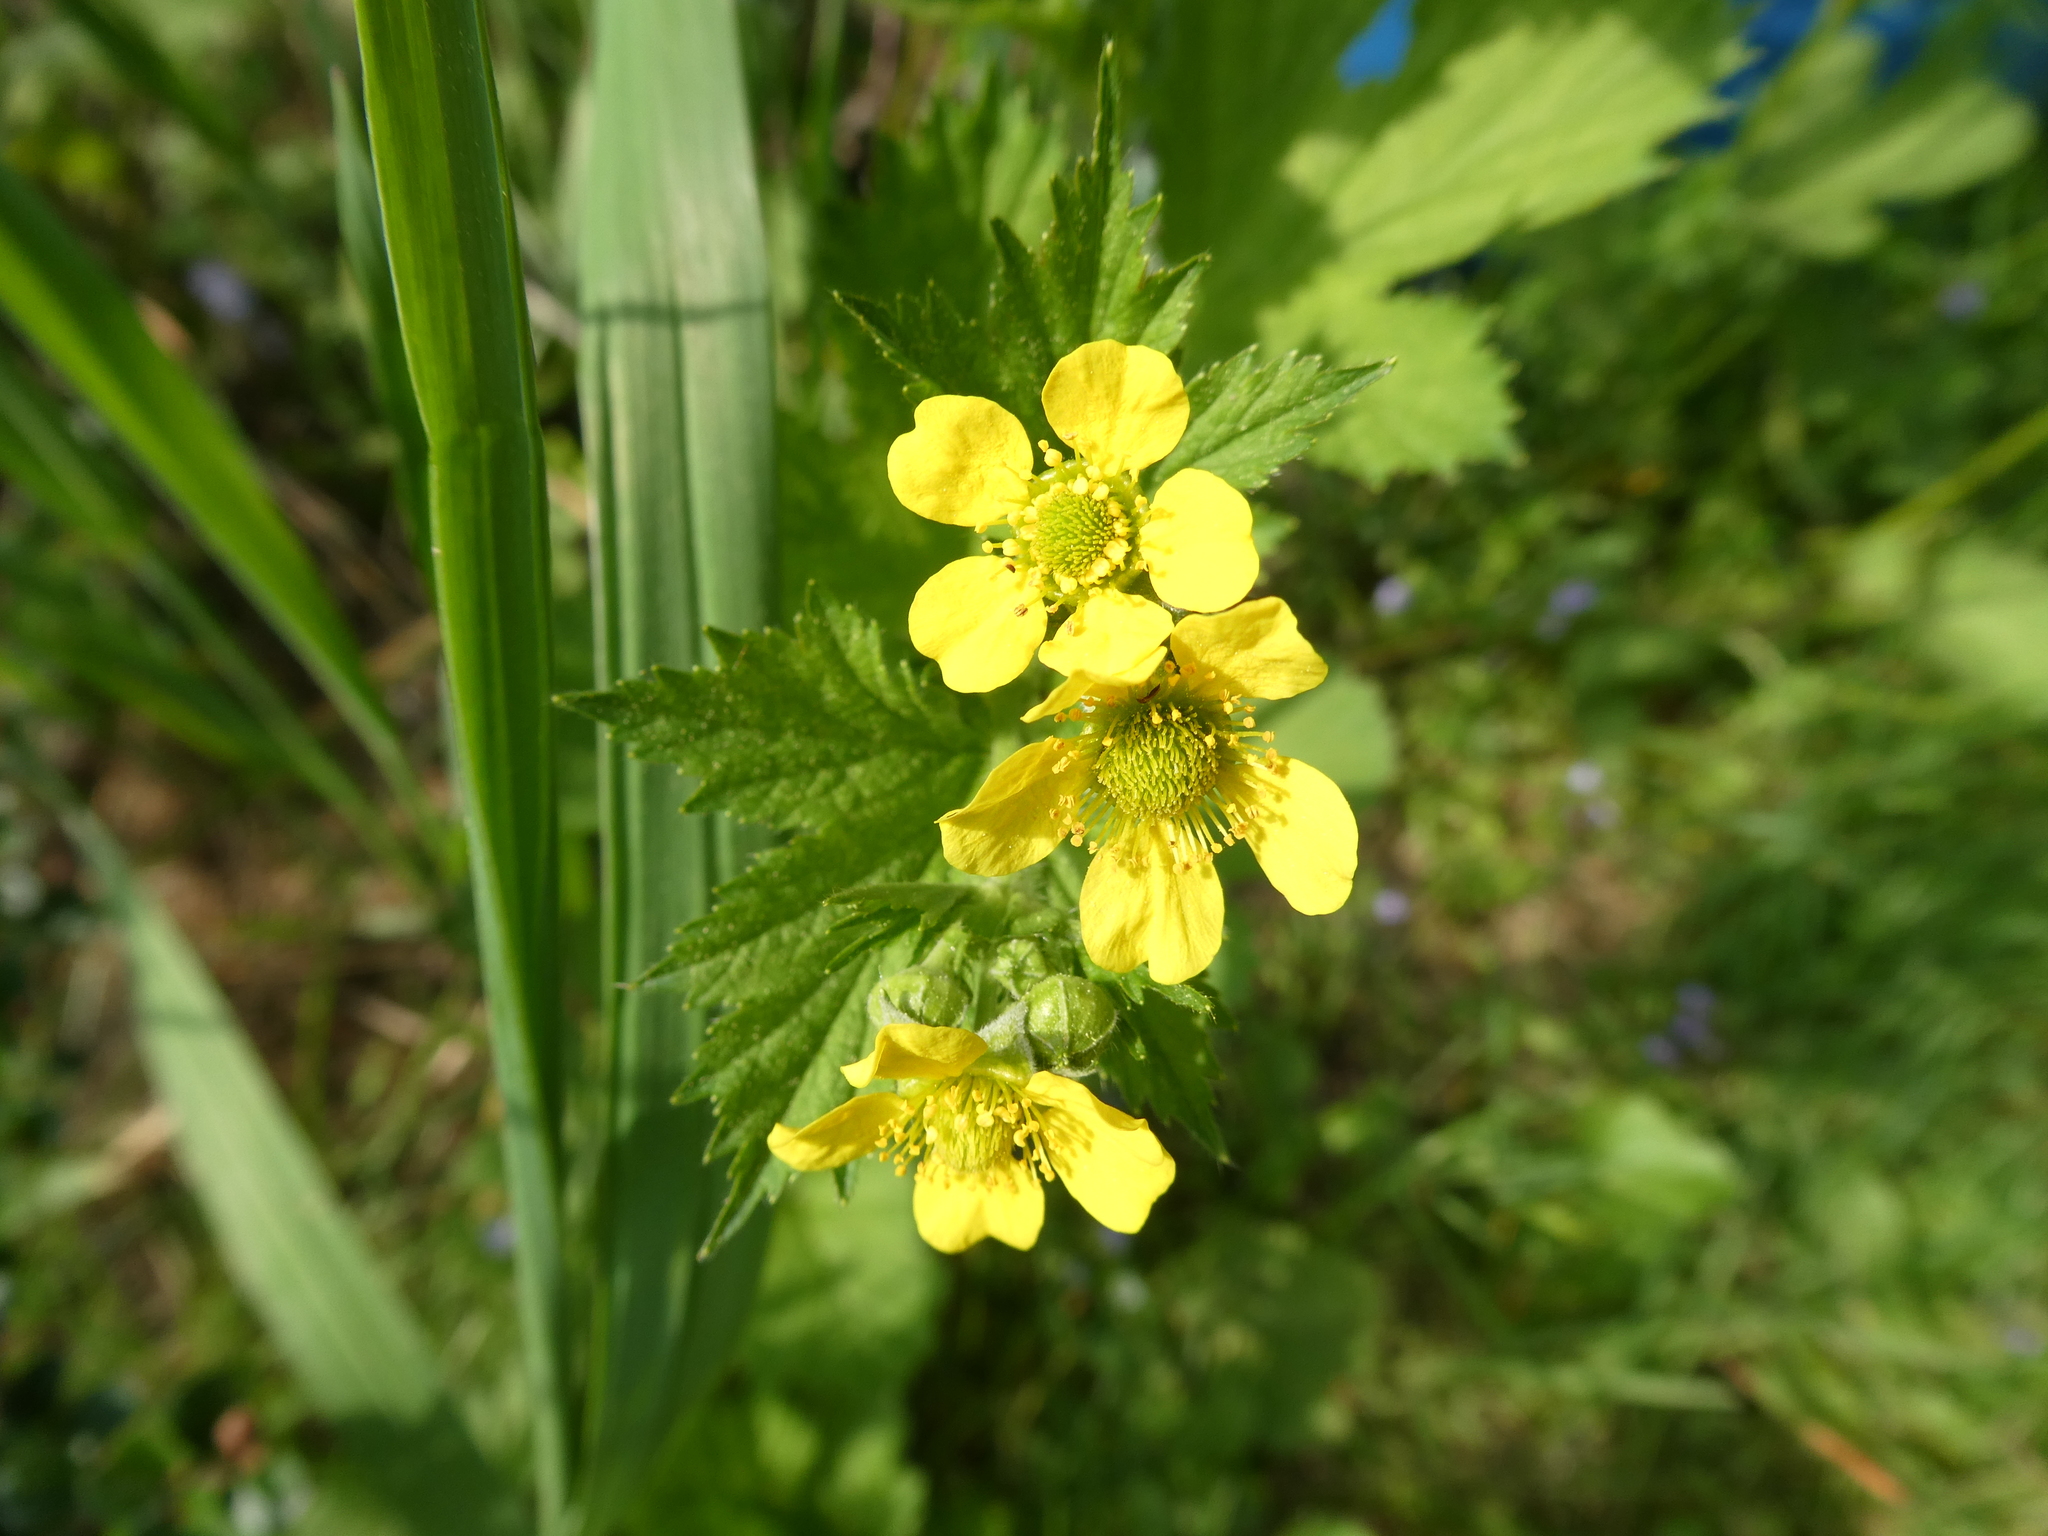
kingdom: Plantae
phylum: Tracheophyta
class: Magnoliopsida
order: Rosales
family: Rosaceae
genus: Geum
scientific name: Geum macrophyllum
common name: Large-leaved avens
